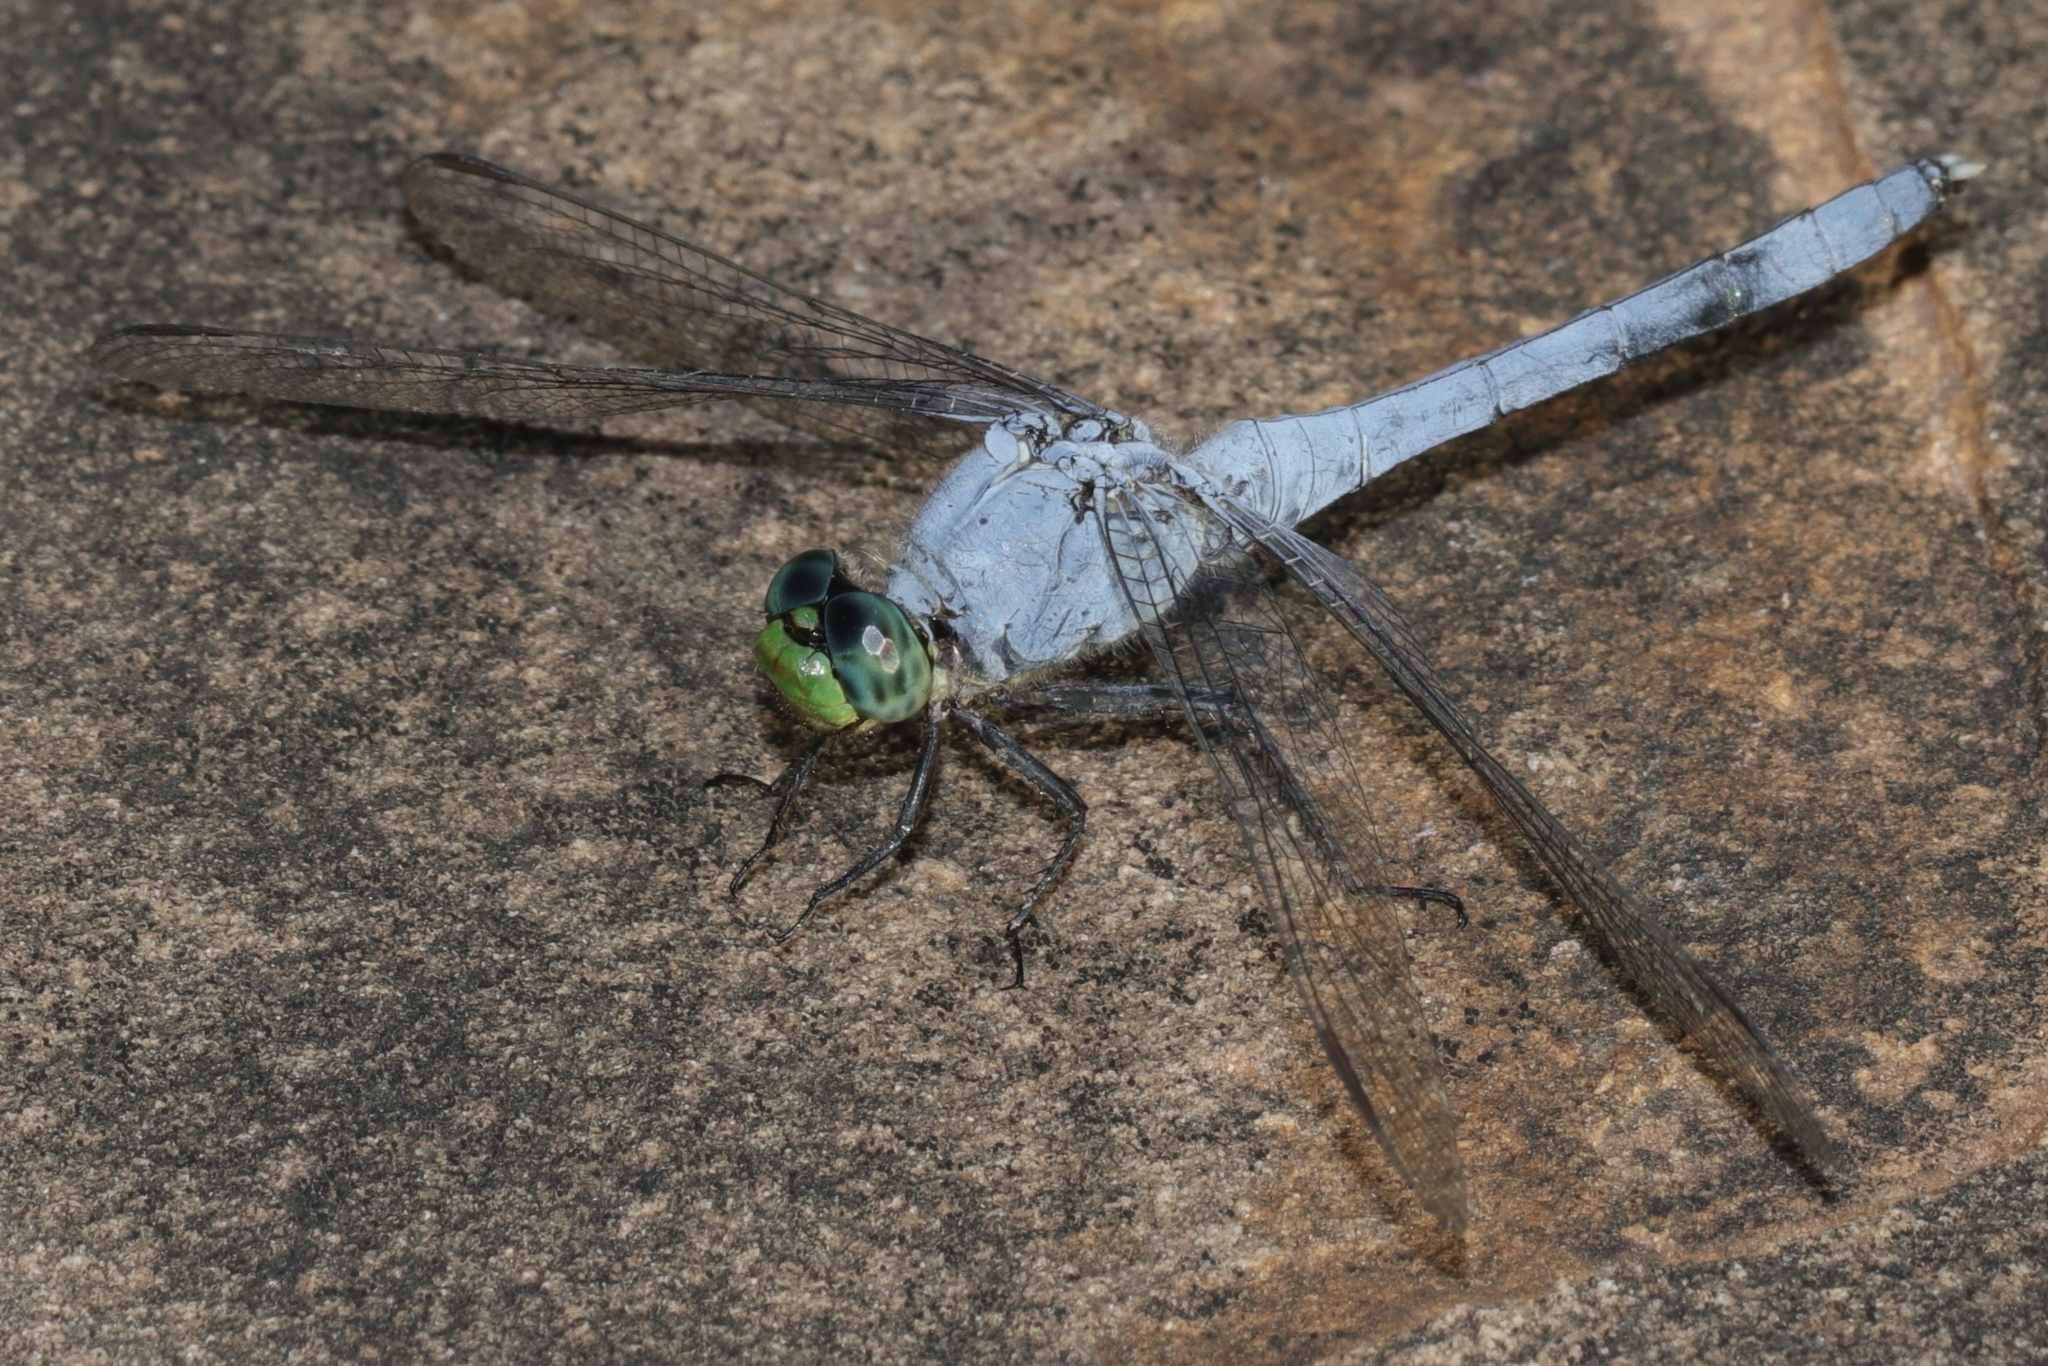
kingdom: Animalia
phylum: Arthropoda
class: Insecta
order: Odonata
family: Libellulidae
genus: Erythemis
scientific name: Erythemis simplicicollis
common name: Eastern pondhawk
